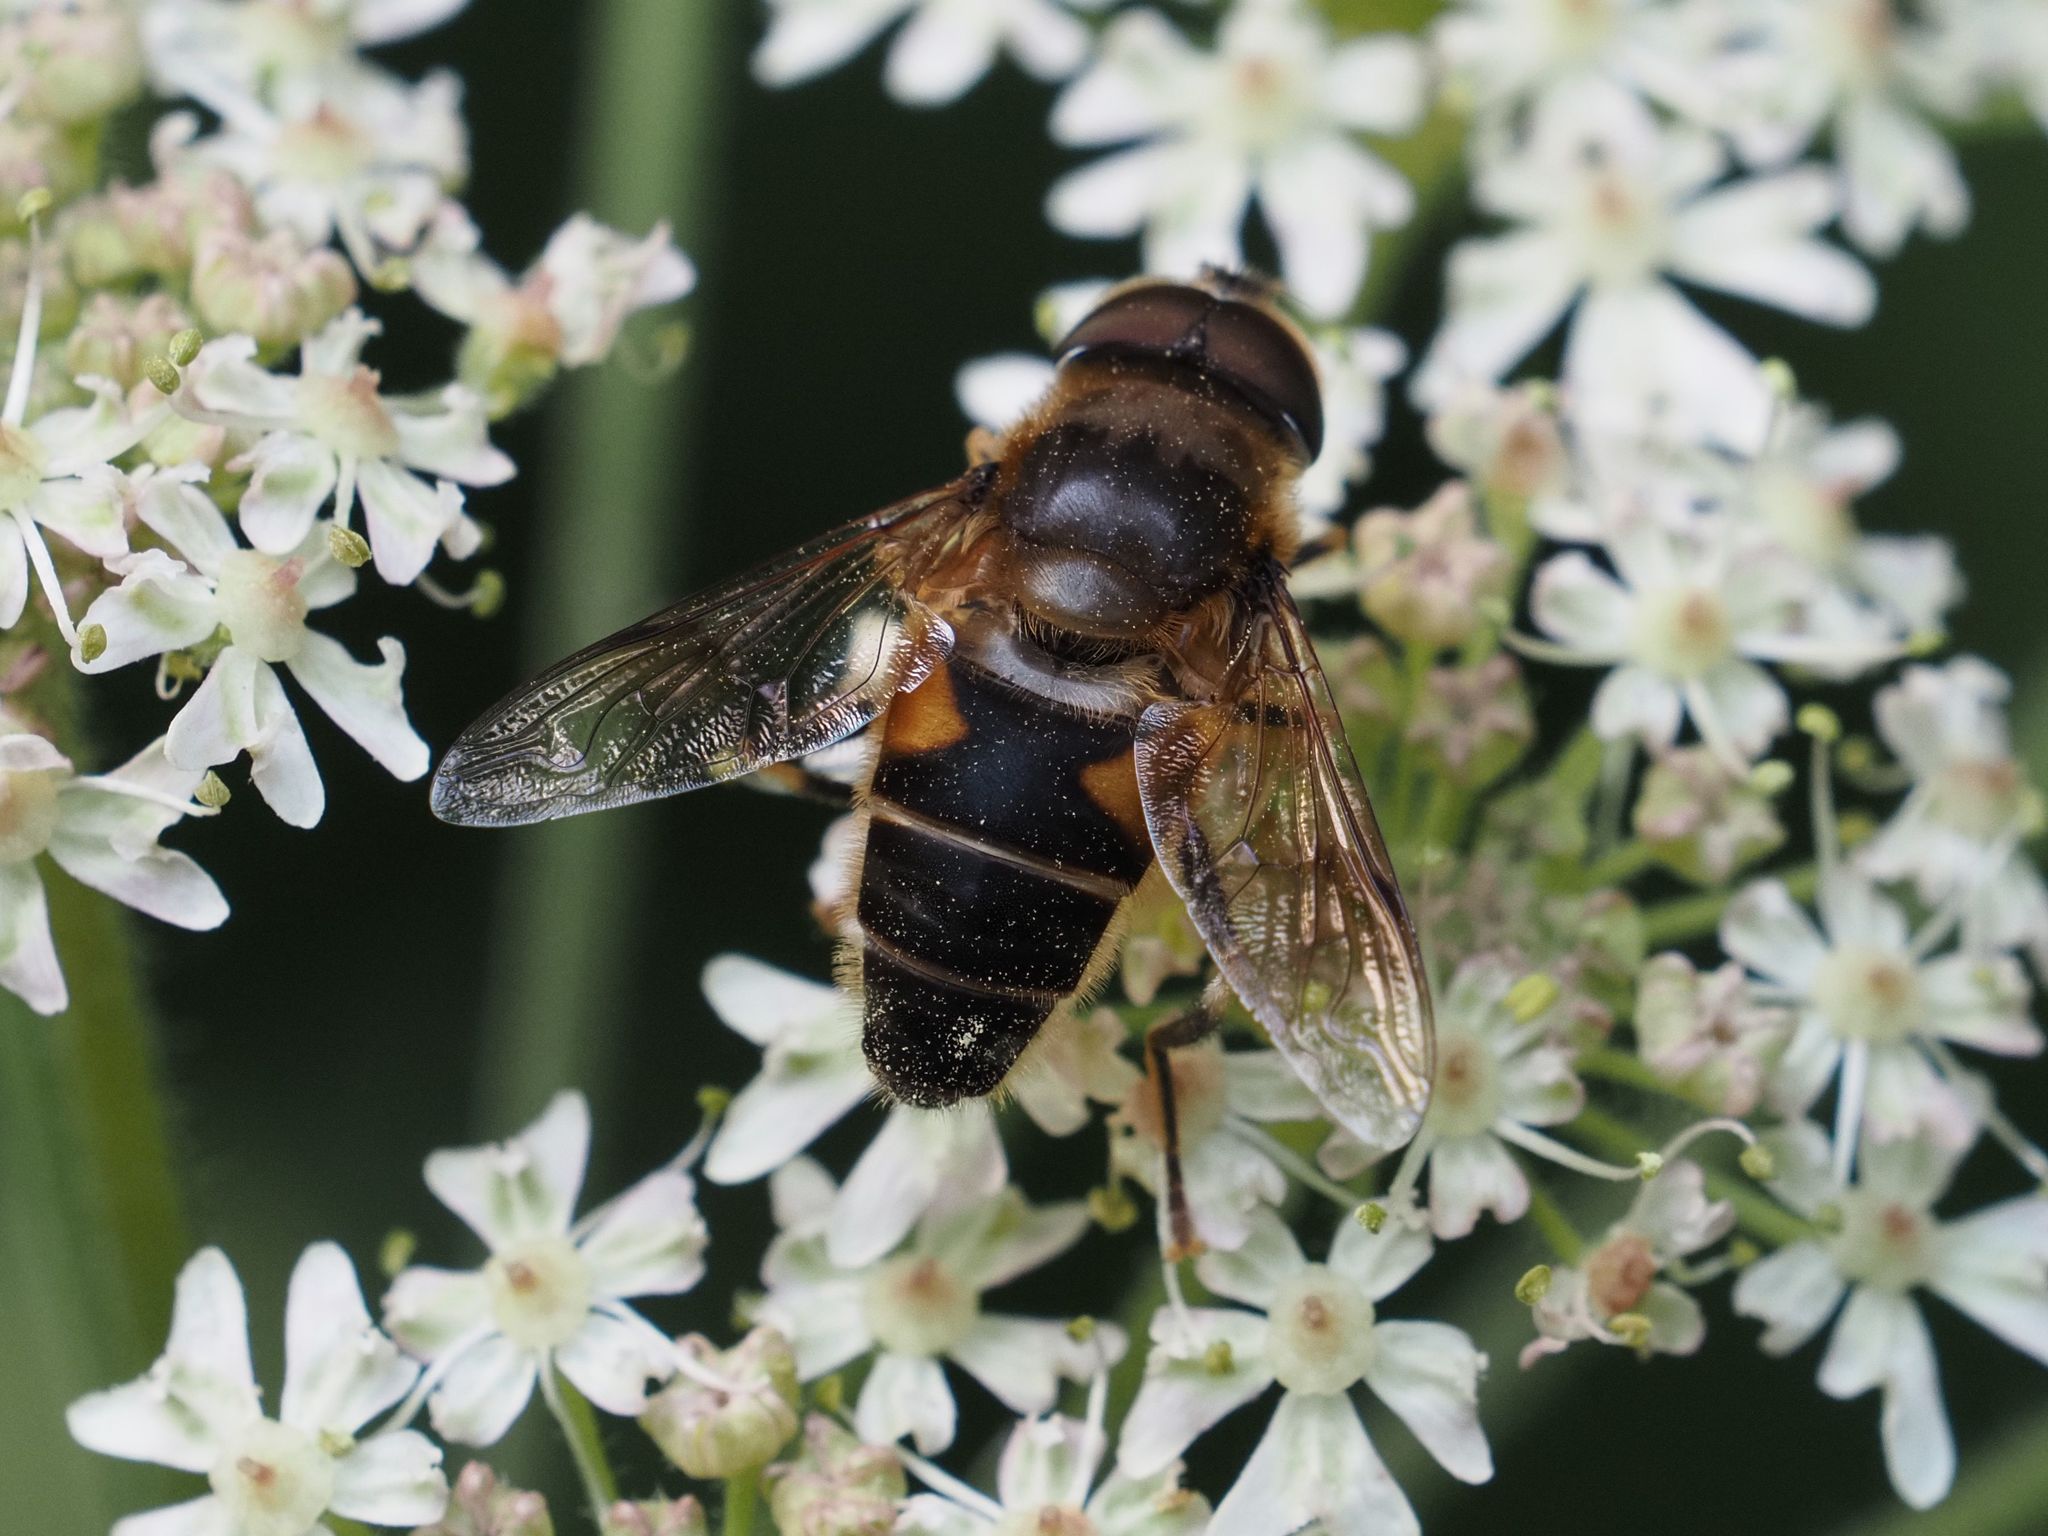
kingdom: Animalia
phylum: Arthropoda
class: Insecta
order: Diptera
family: Syrphidae
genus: Eristalis
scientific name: Eristalis pertinax
